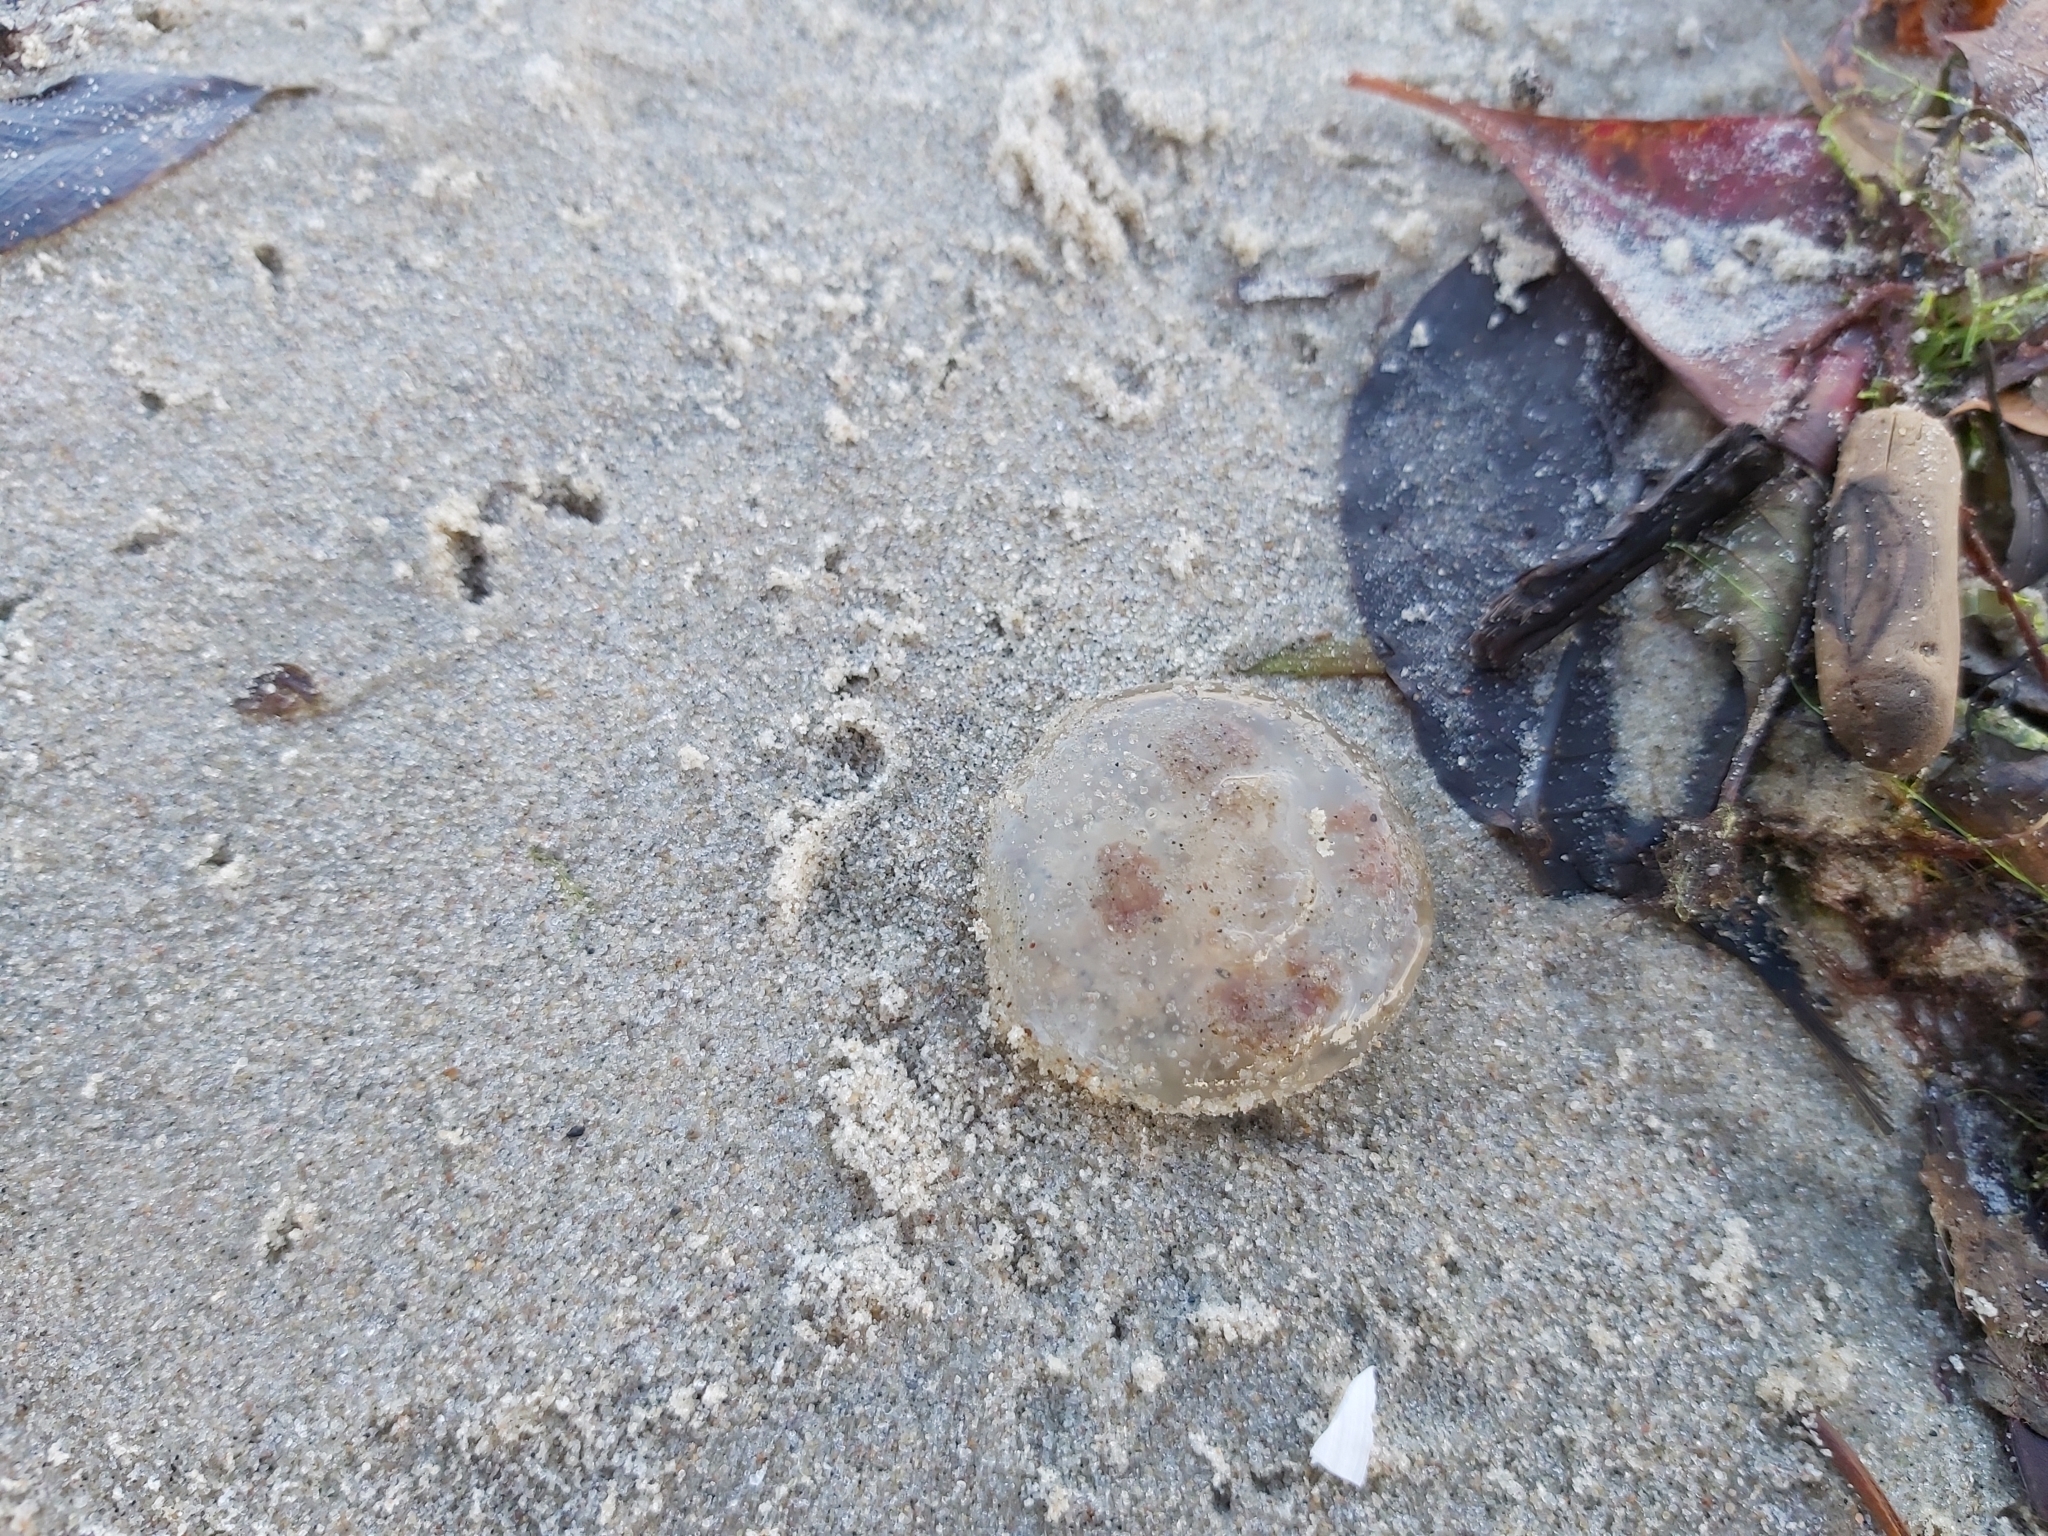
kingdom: Animalia
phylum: Cnidaria
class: Scyphozoa
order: Semaeostomeae
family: Ulmaridae
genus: Aurelia
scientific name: Aurelia aurita
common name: Moon jellyfish
